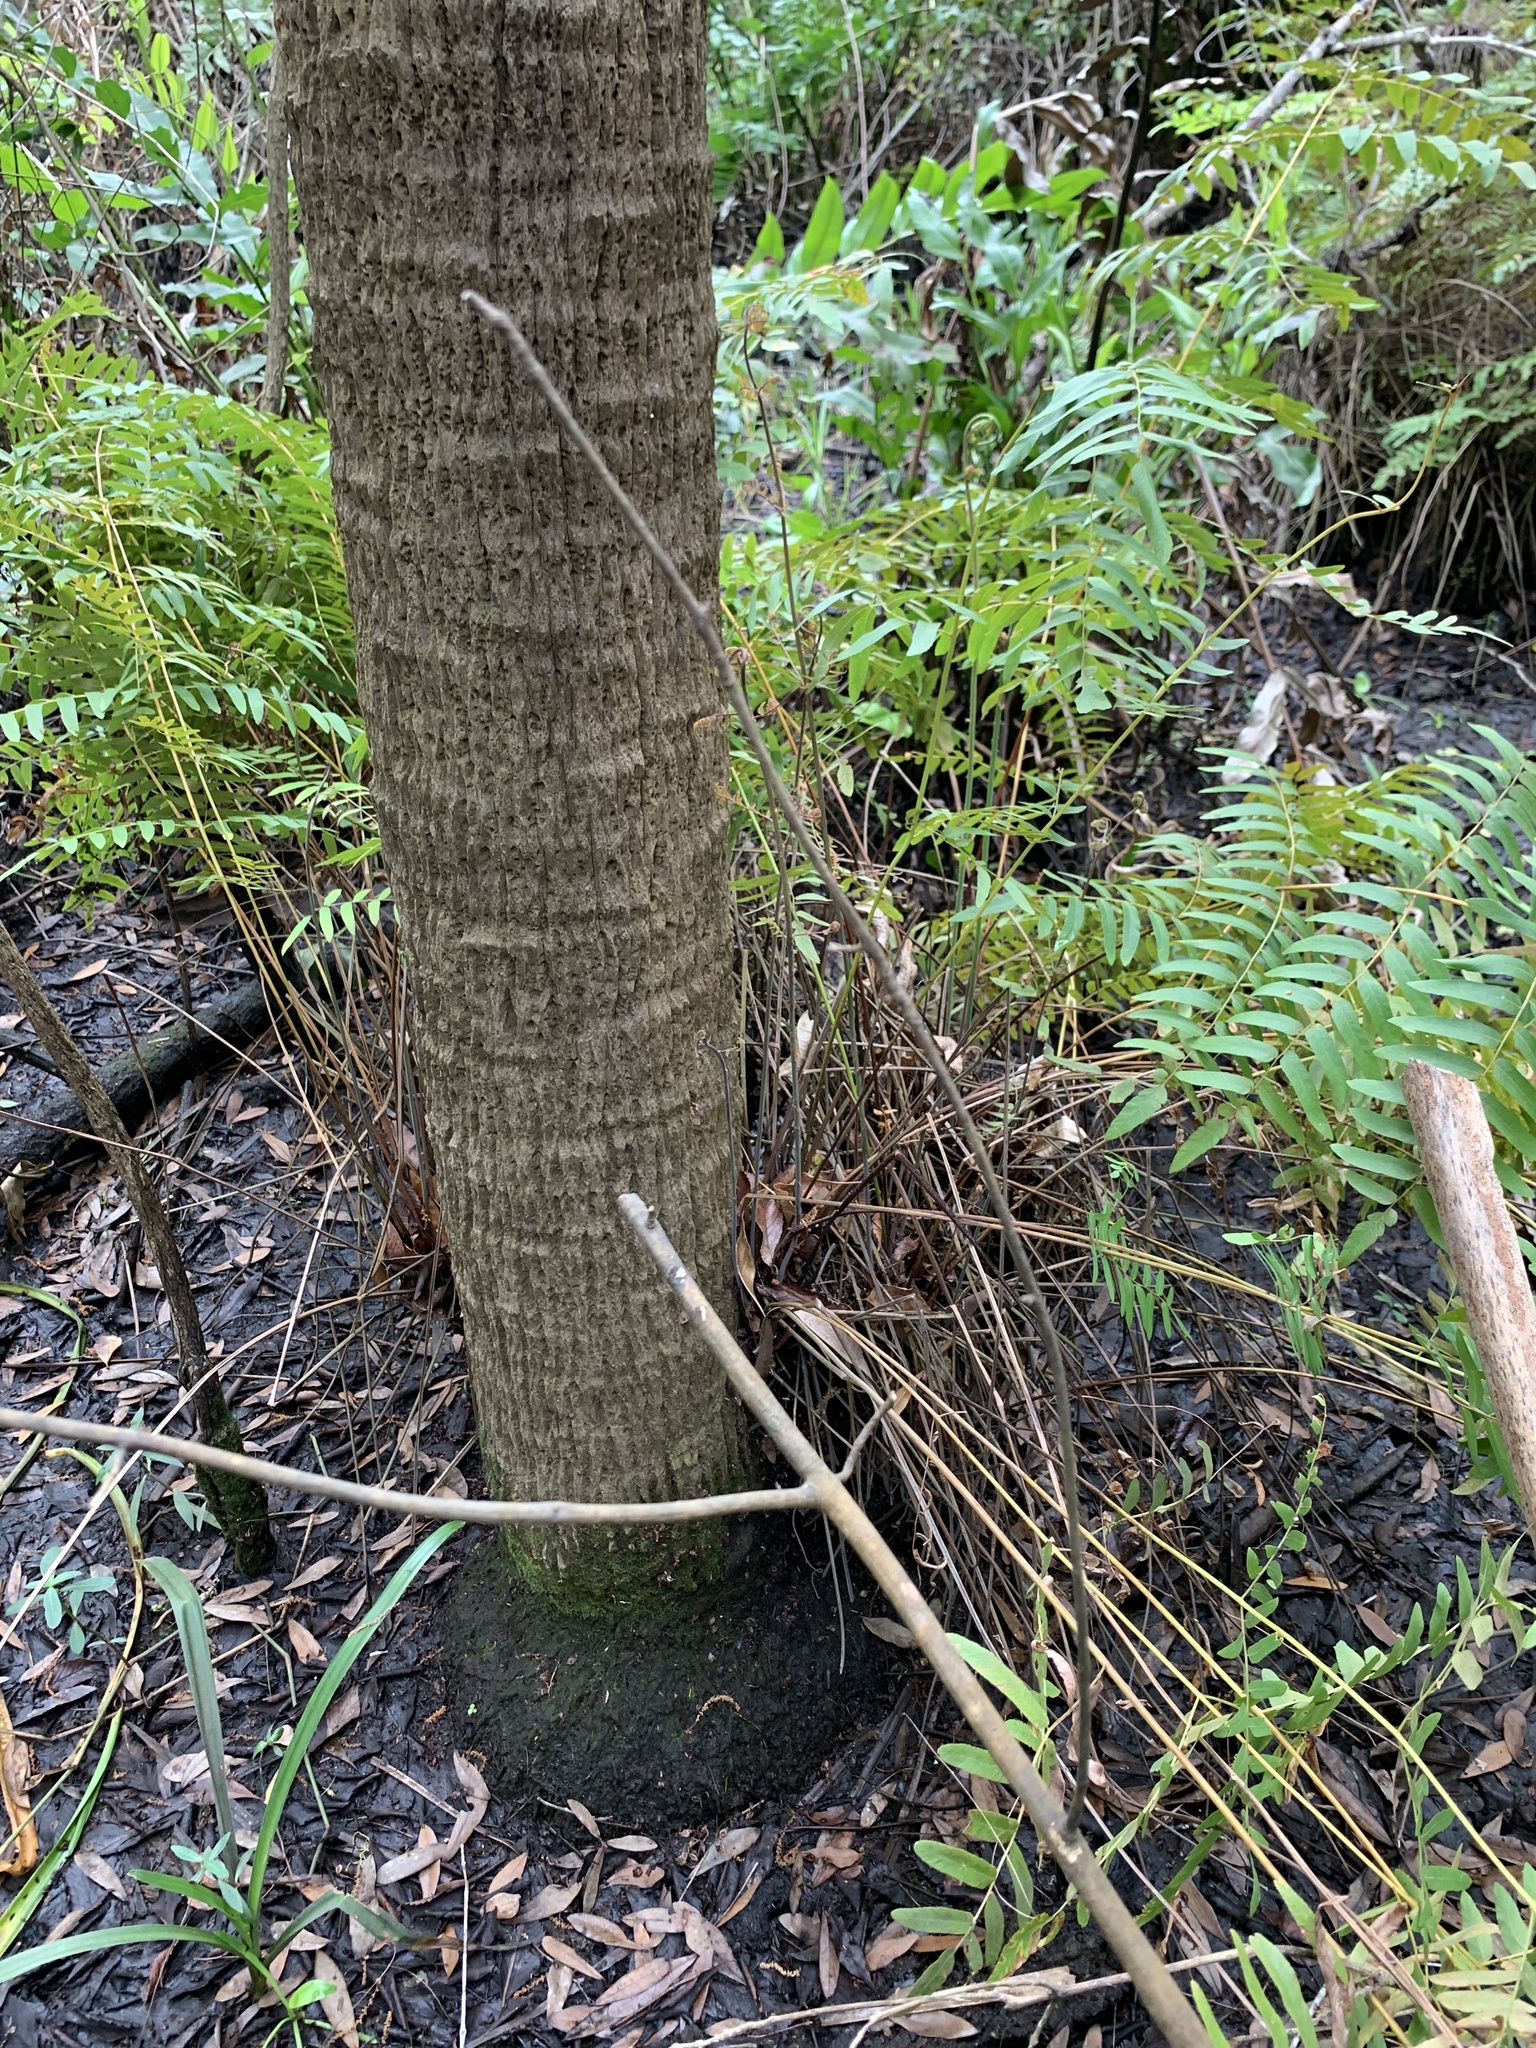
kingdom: Plantae
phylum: Tracheophyta
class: Polypodiopsida
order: Osmundales
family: Osmundaceae
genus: Osmunda
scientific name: Osmunda spectabilis
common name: American royal fern
